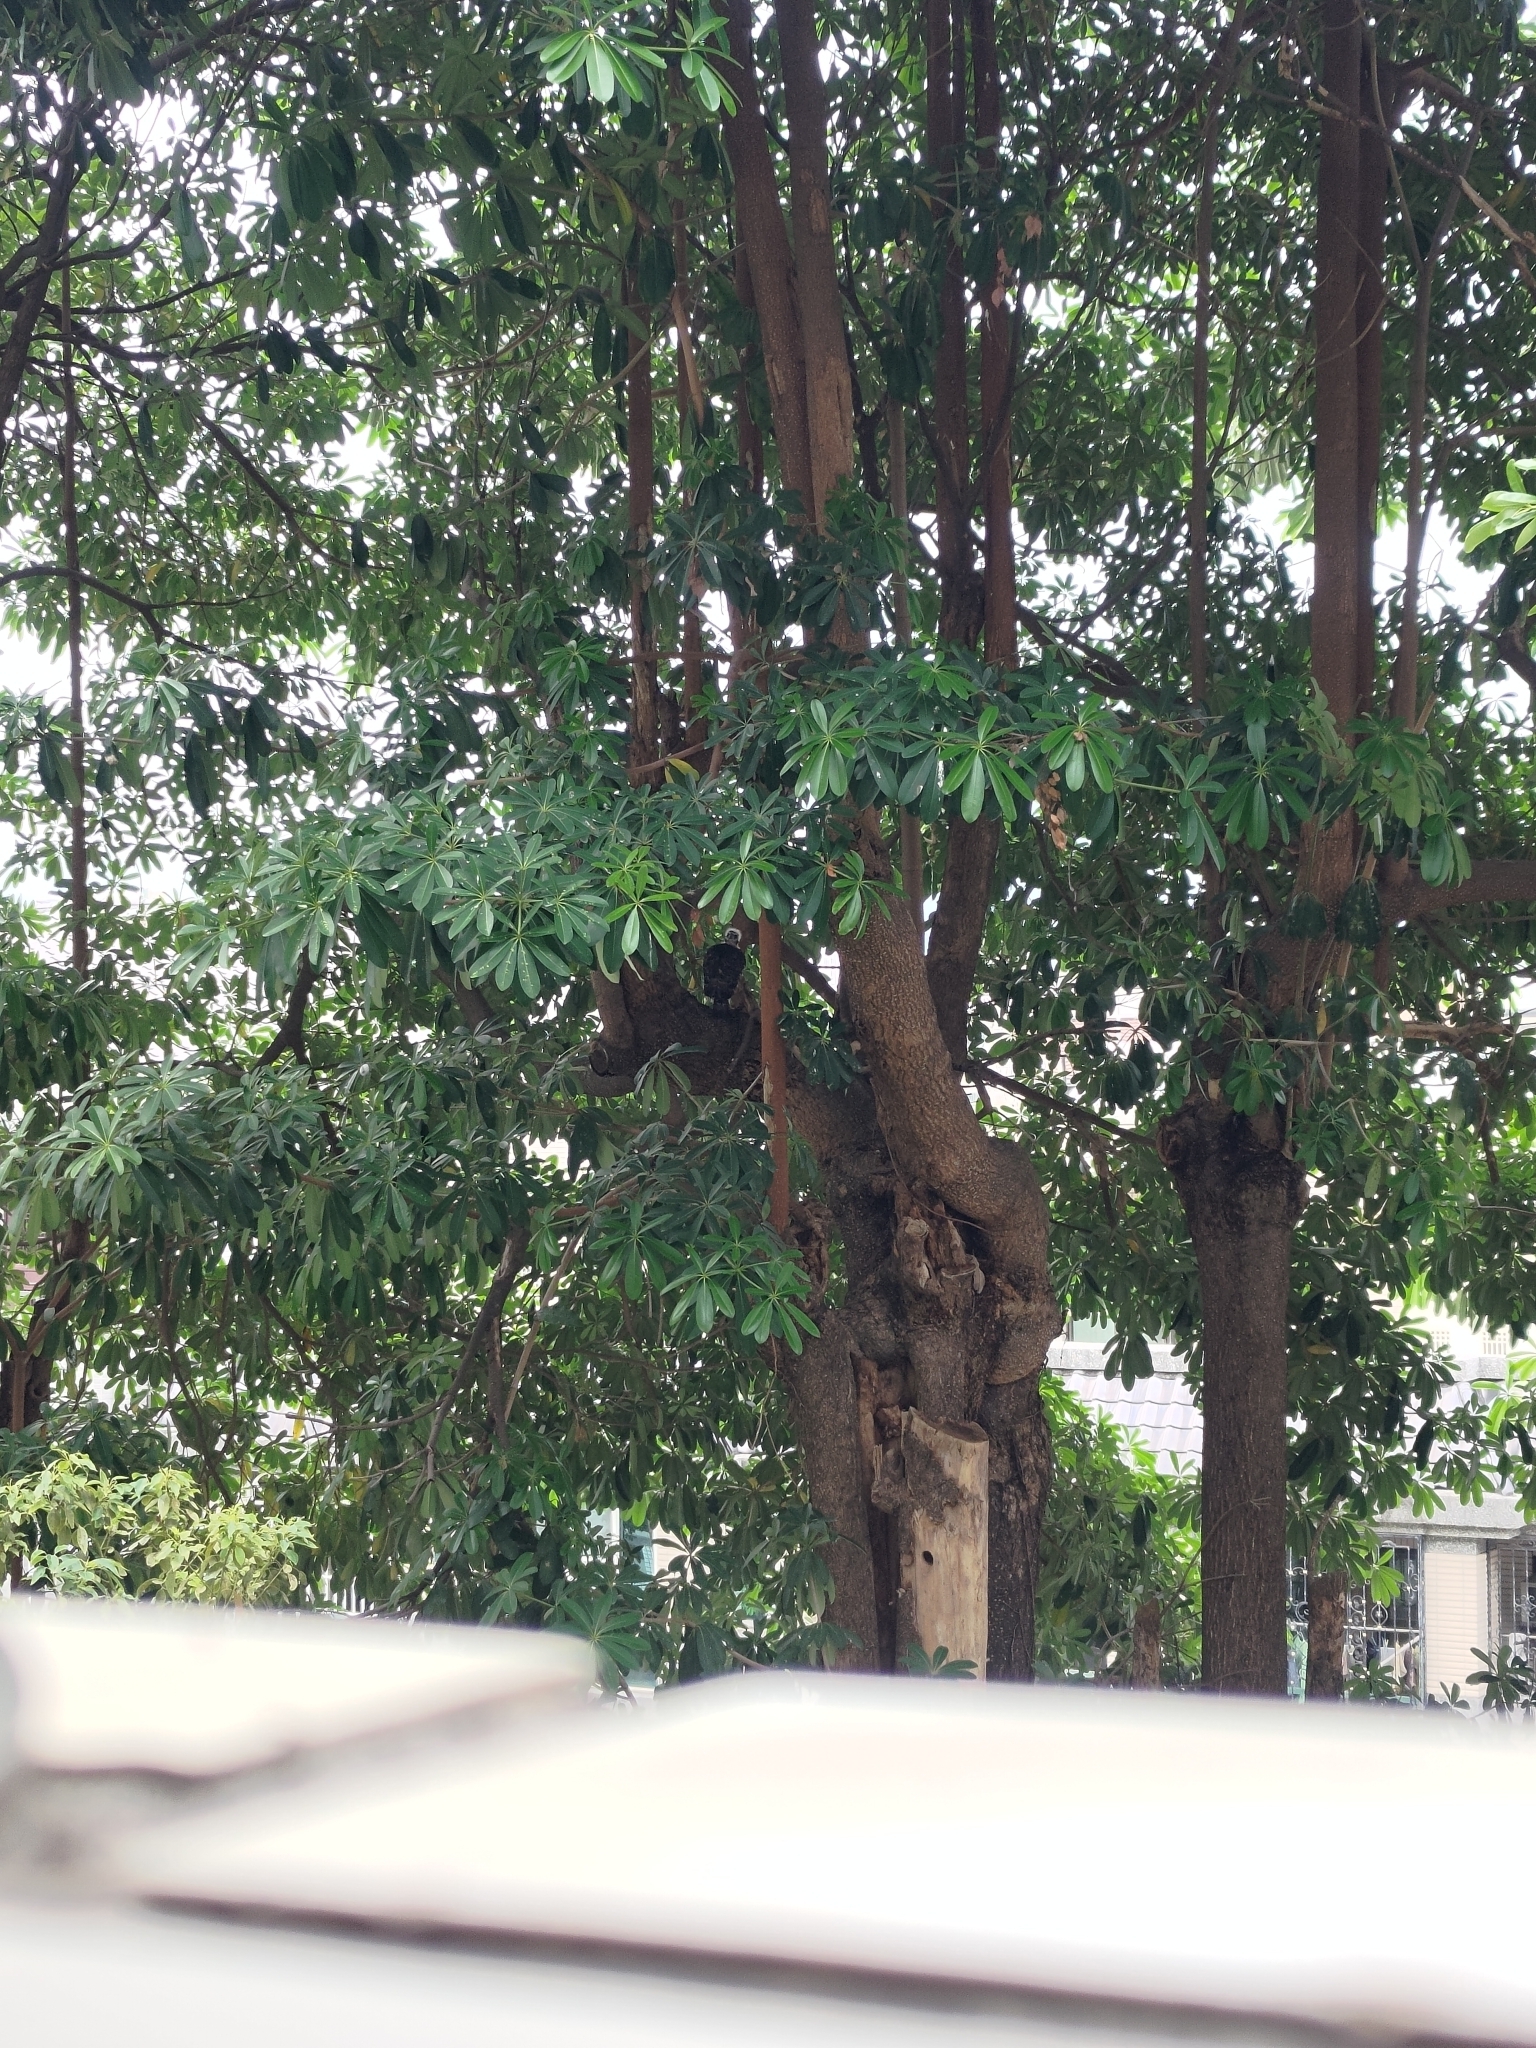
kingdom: Animalia
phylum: Chordata
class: Aves
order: Accipitriformes
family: Accipitridae
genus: Accipiter
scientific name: Accipiter trivirgatus
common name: Crested goshawk
